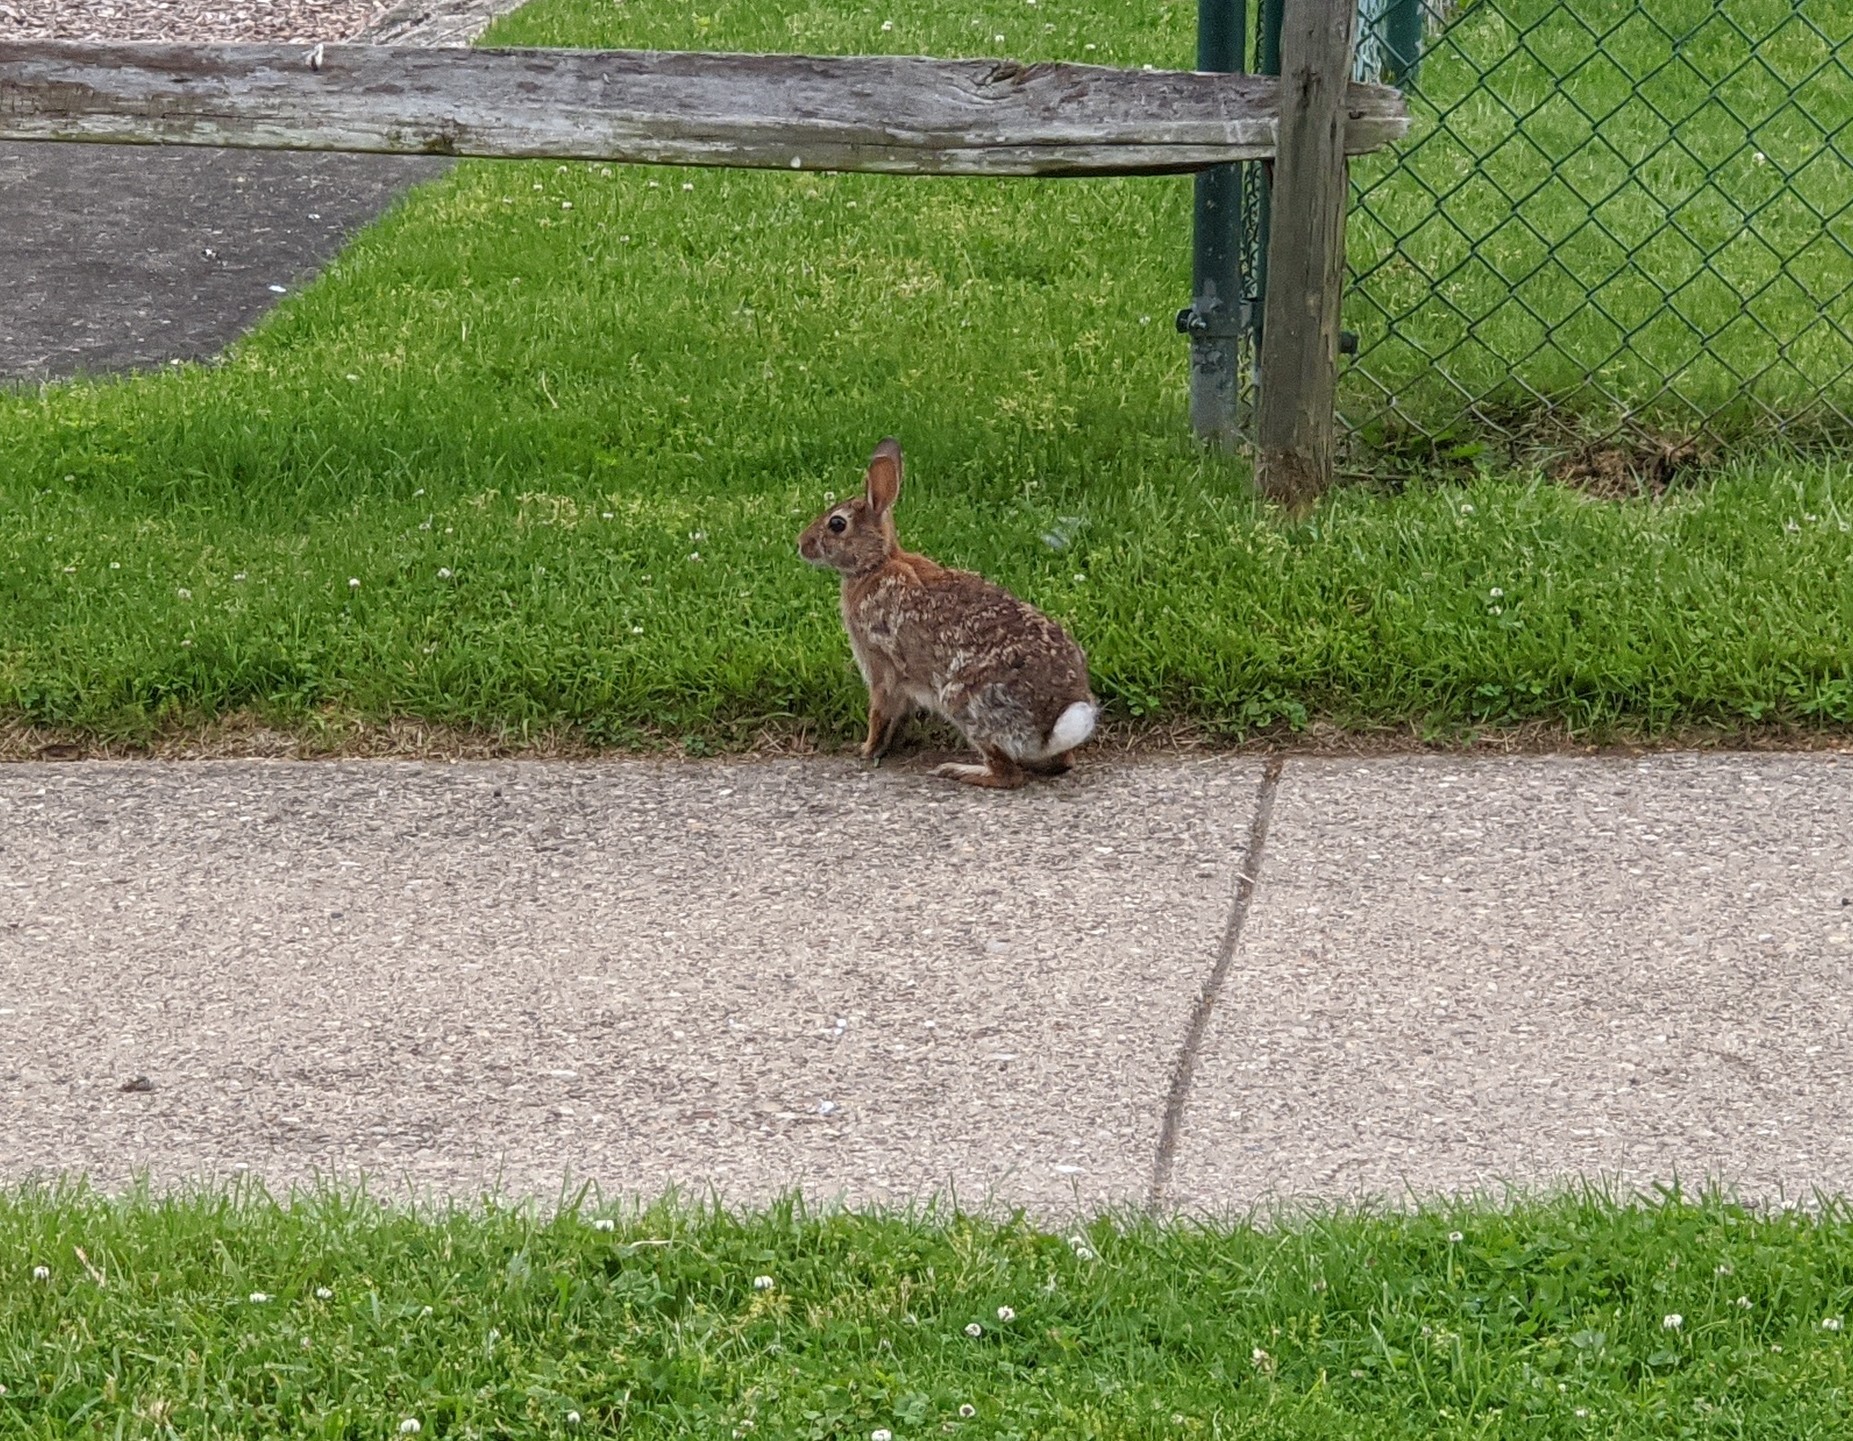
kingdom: Animalia
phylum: Chordata
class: Mammalia
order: Lagomorpha
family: Leporidae
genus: Sylvilagus
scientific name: Sylvilagus floridanus
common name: Eastern cottontail
